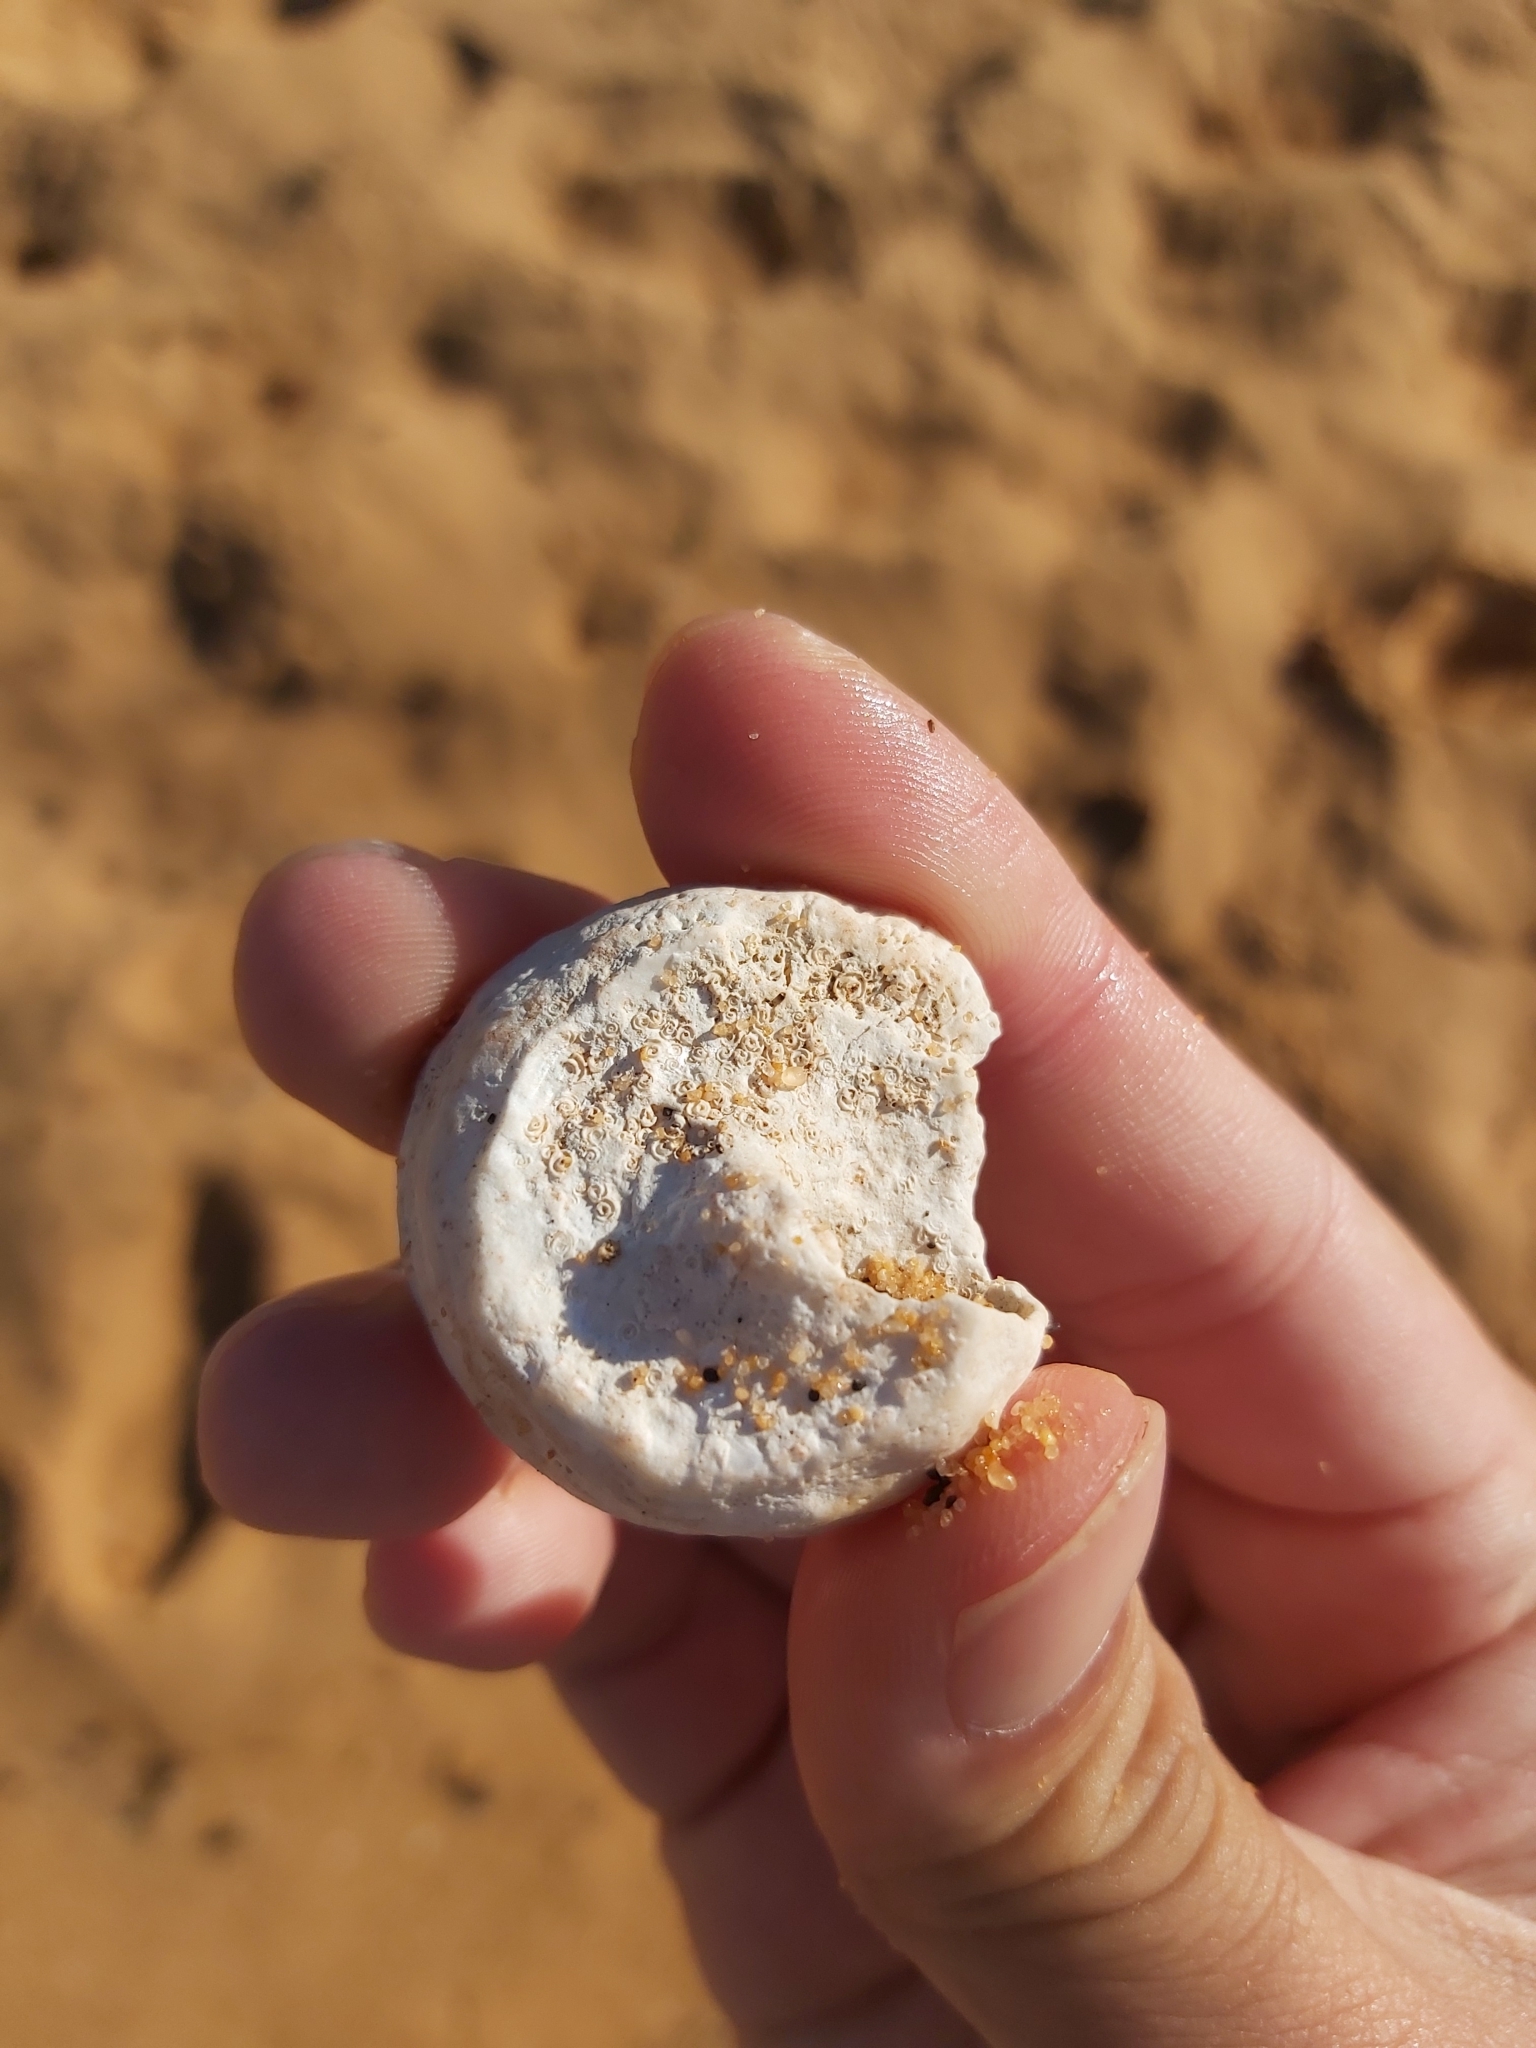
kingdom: Animalia
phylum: Mollusca
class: Gastropoda
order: Trochida
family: Turbinidae
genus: Astralium
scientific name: Astralium tentoriiforme
